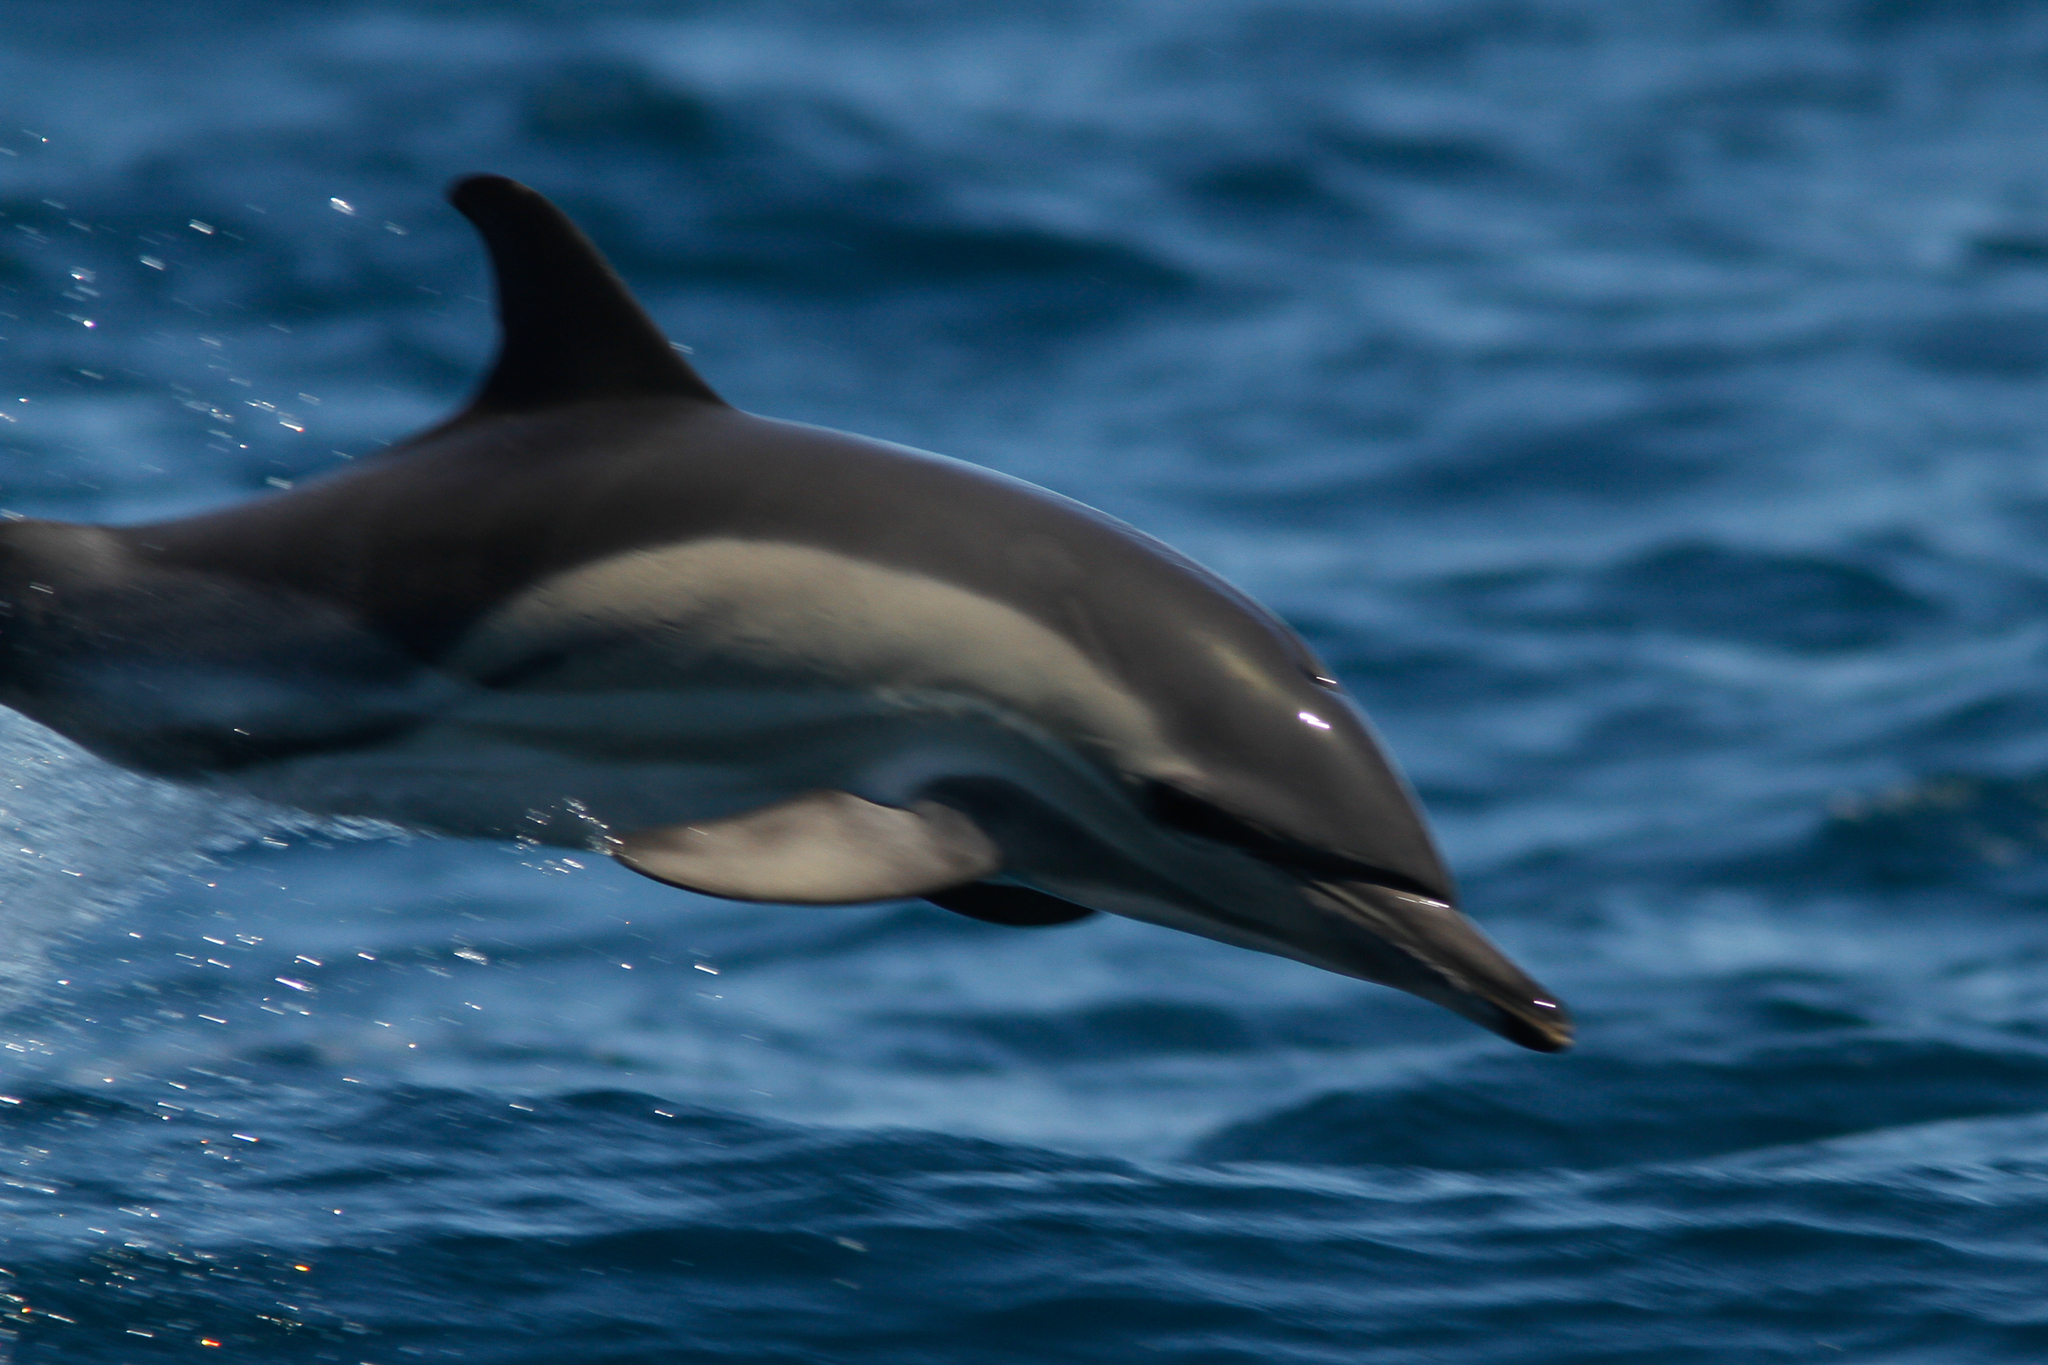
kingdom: Animalia
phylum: Chordata
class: Mammalia
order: Cetacea
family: Delphinidae
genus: Delphinus
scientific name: Delphinus delphis
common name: Common dolphin
